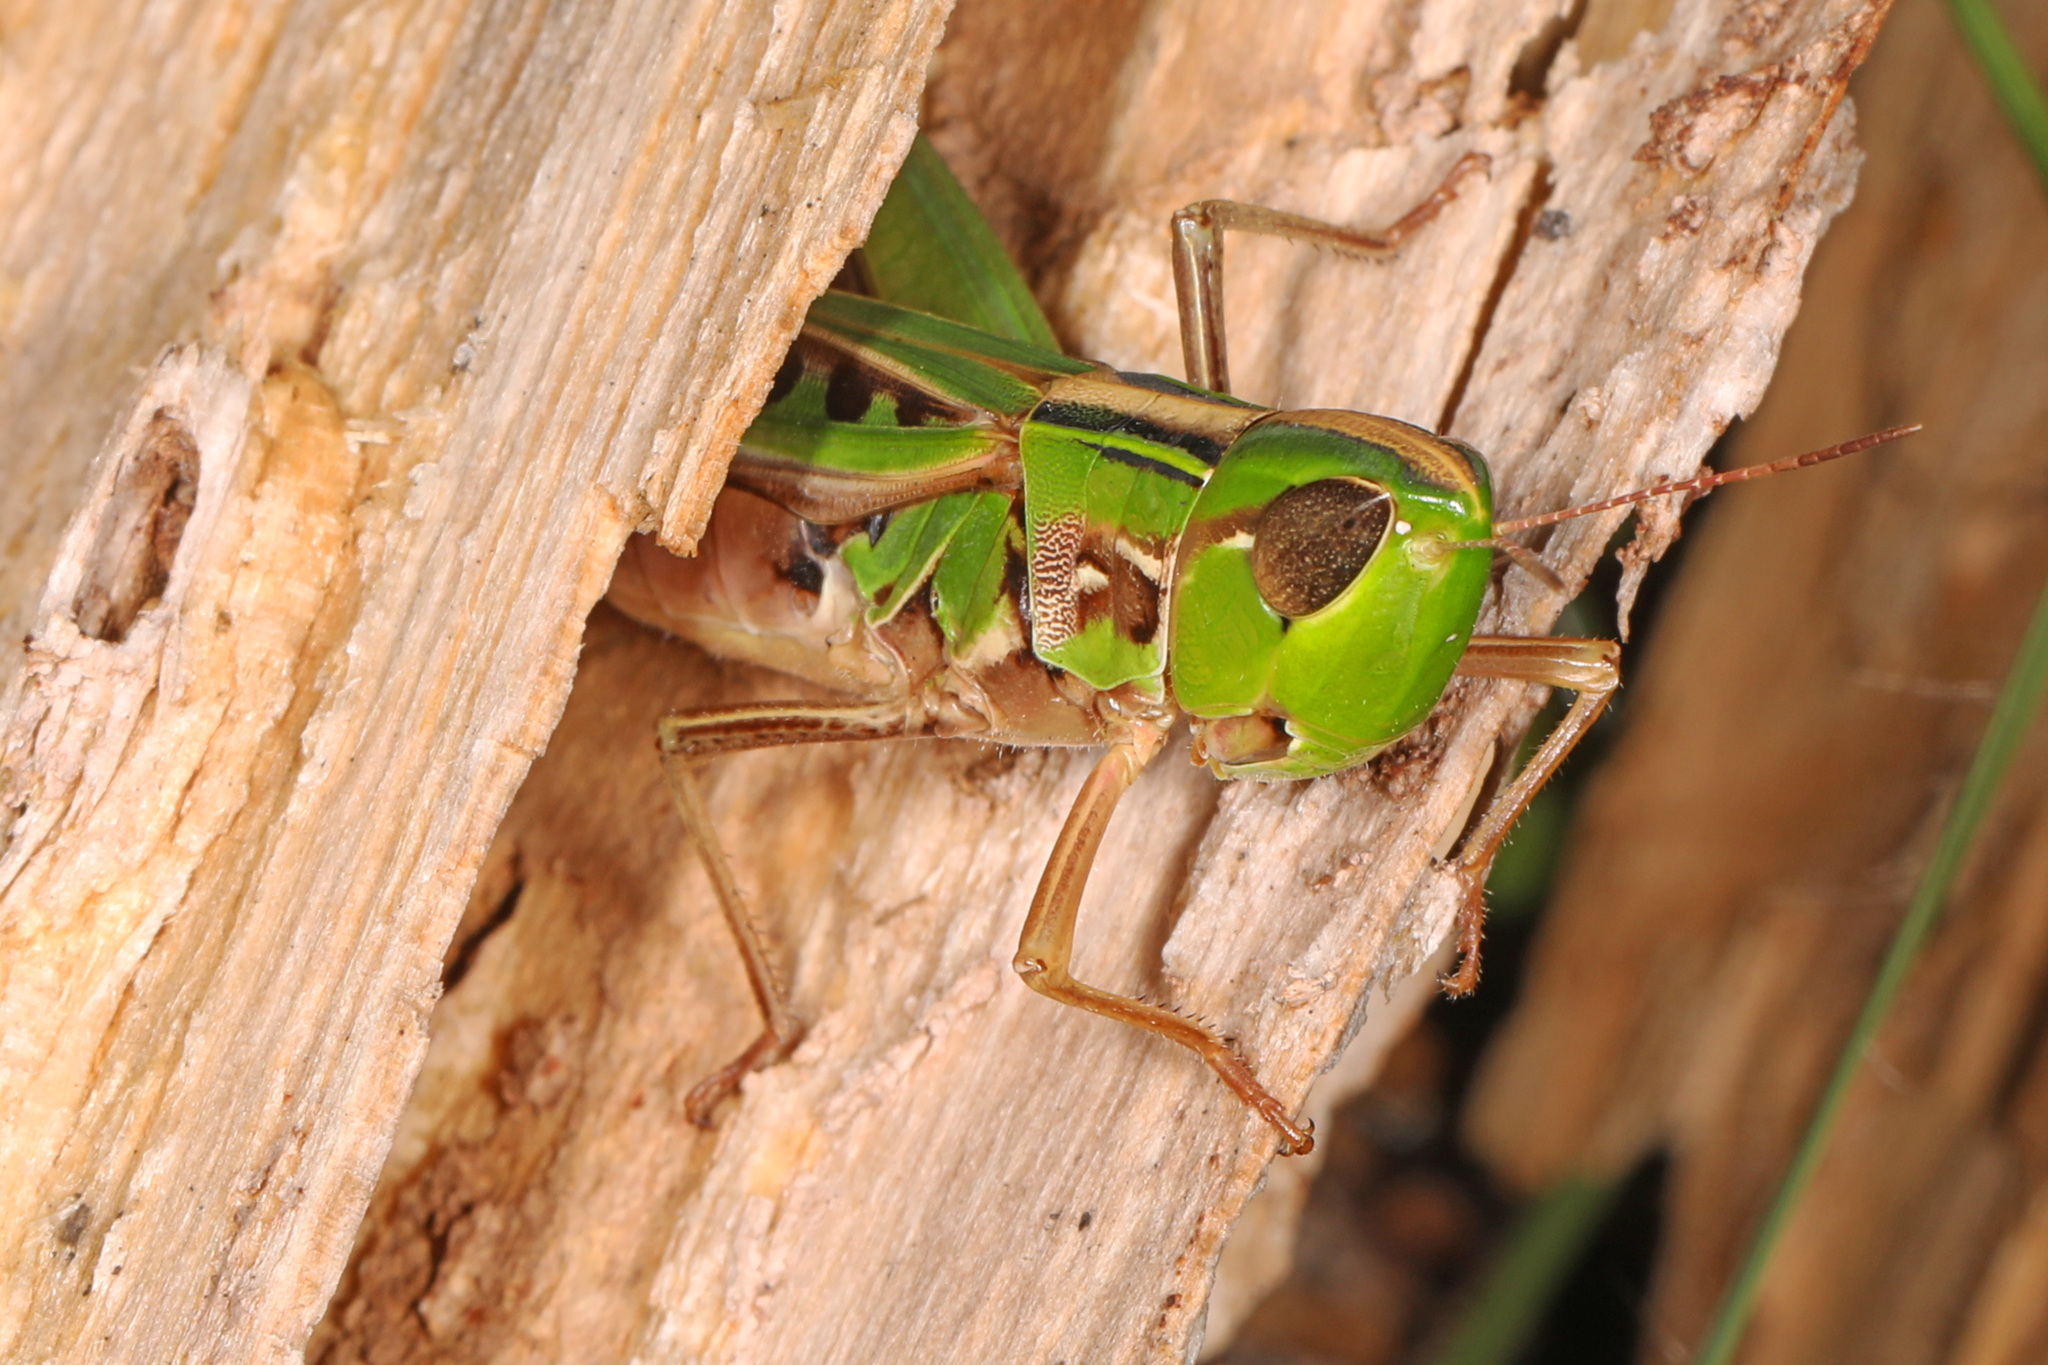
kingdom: Animalia
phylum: Arthropoda
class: Insecta
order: Orthoptera
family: Acrididae
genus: Syrbula
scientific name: Syrbula admirabilis
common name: Handsome grasshopper
